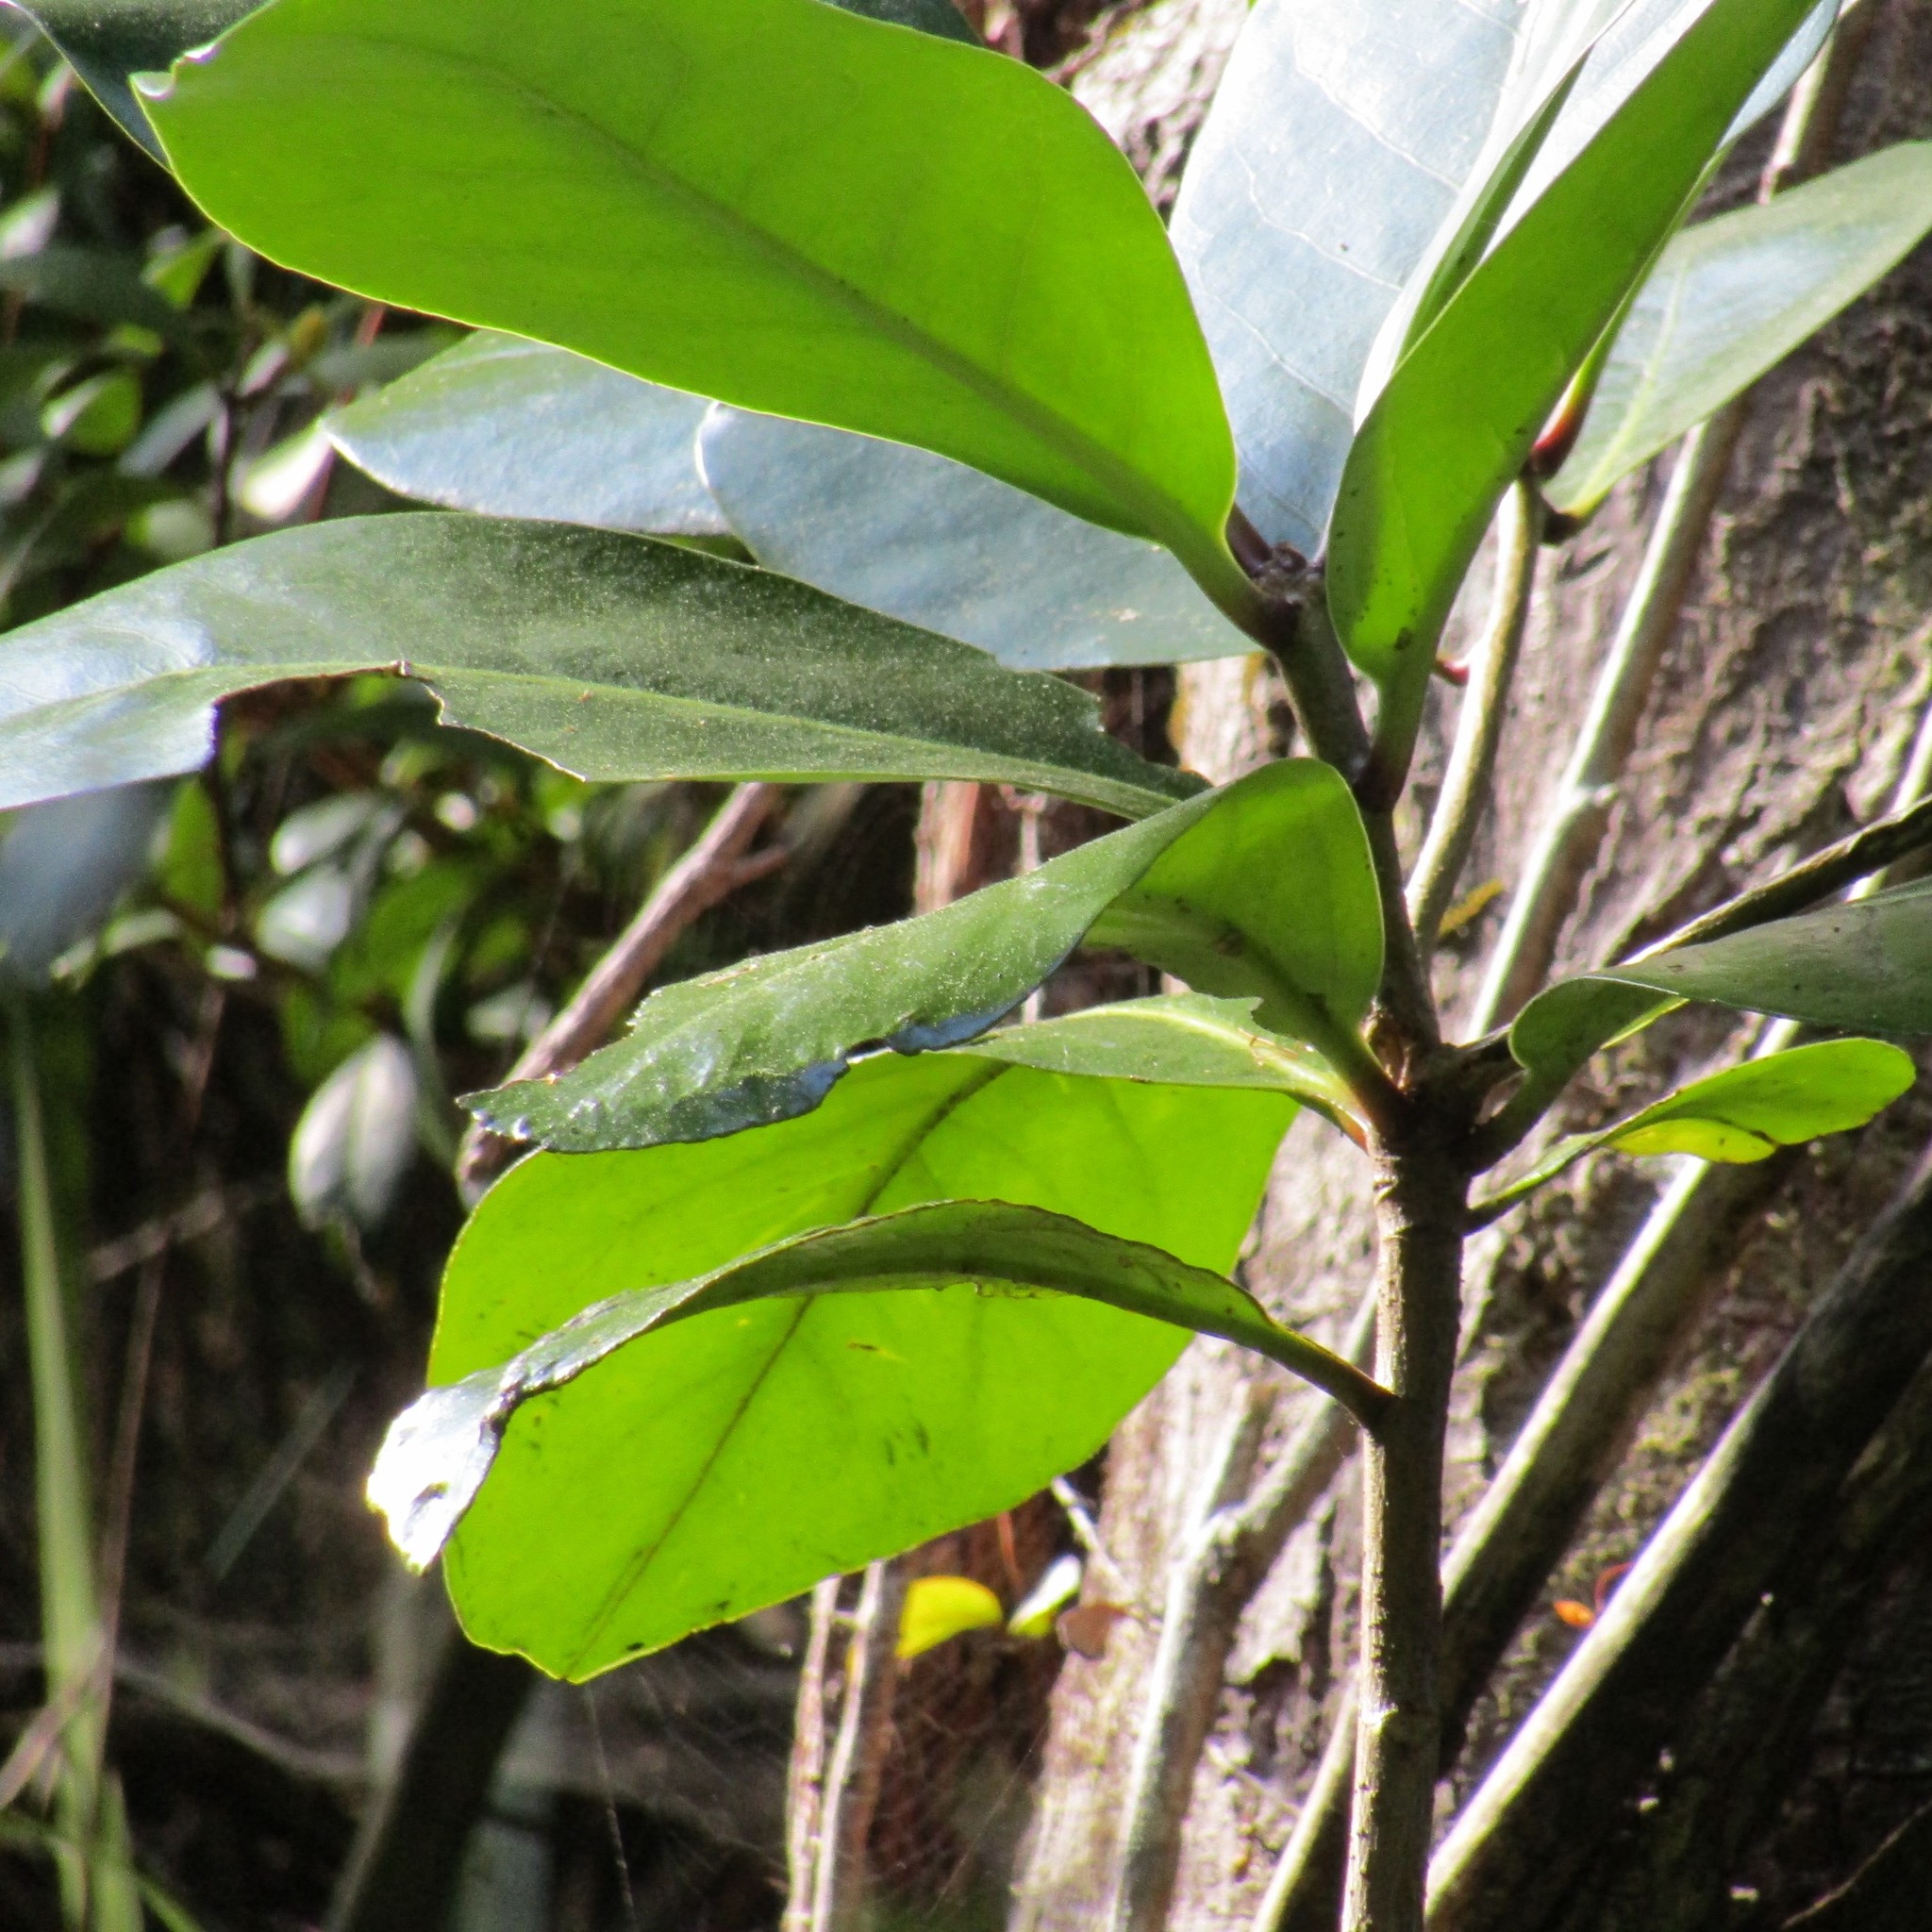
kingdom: Plantae
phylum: Tracheophyta
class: Magnoliopsida
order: Cucurbitales
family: Corynocarpaceae
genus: Corynocarpus
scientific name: Corynocarpus laevigatus
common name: New zealand laurel
